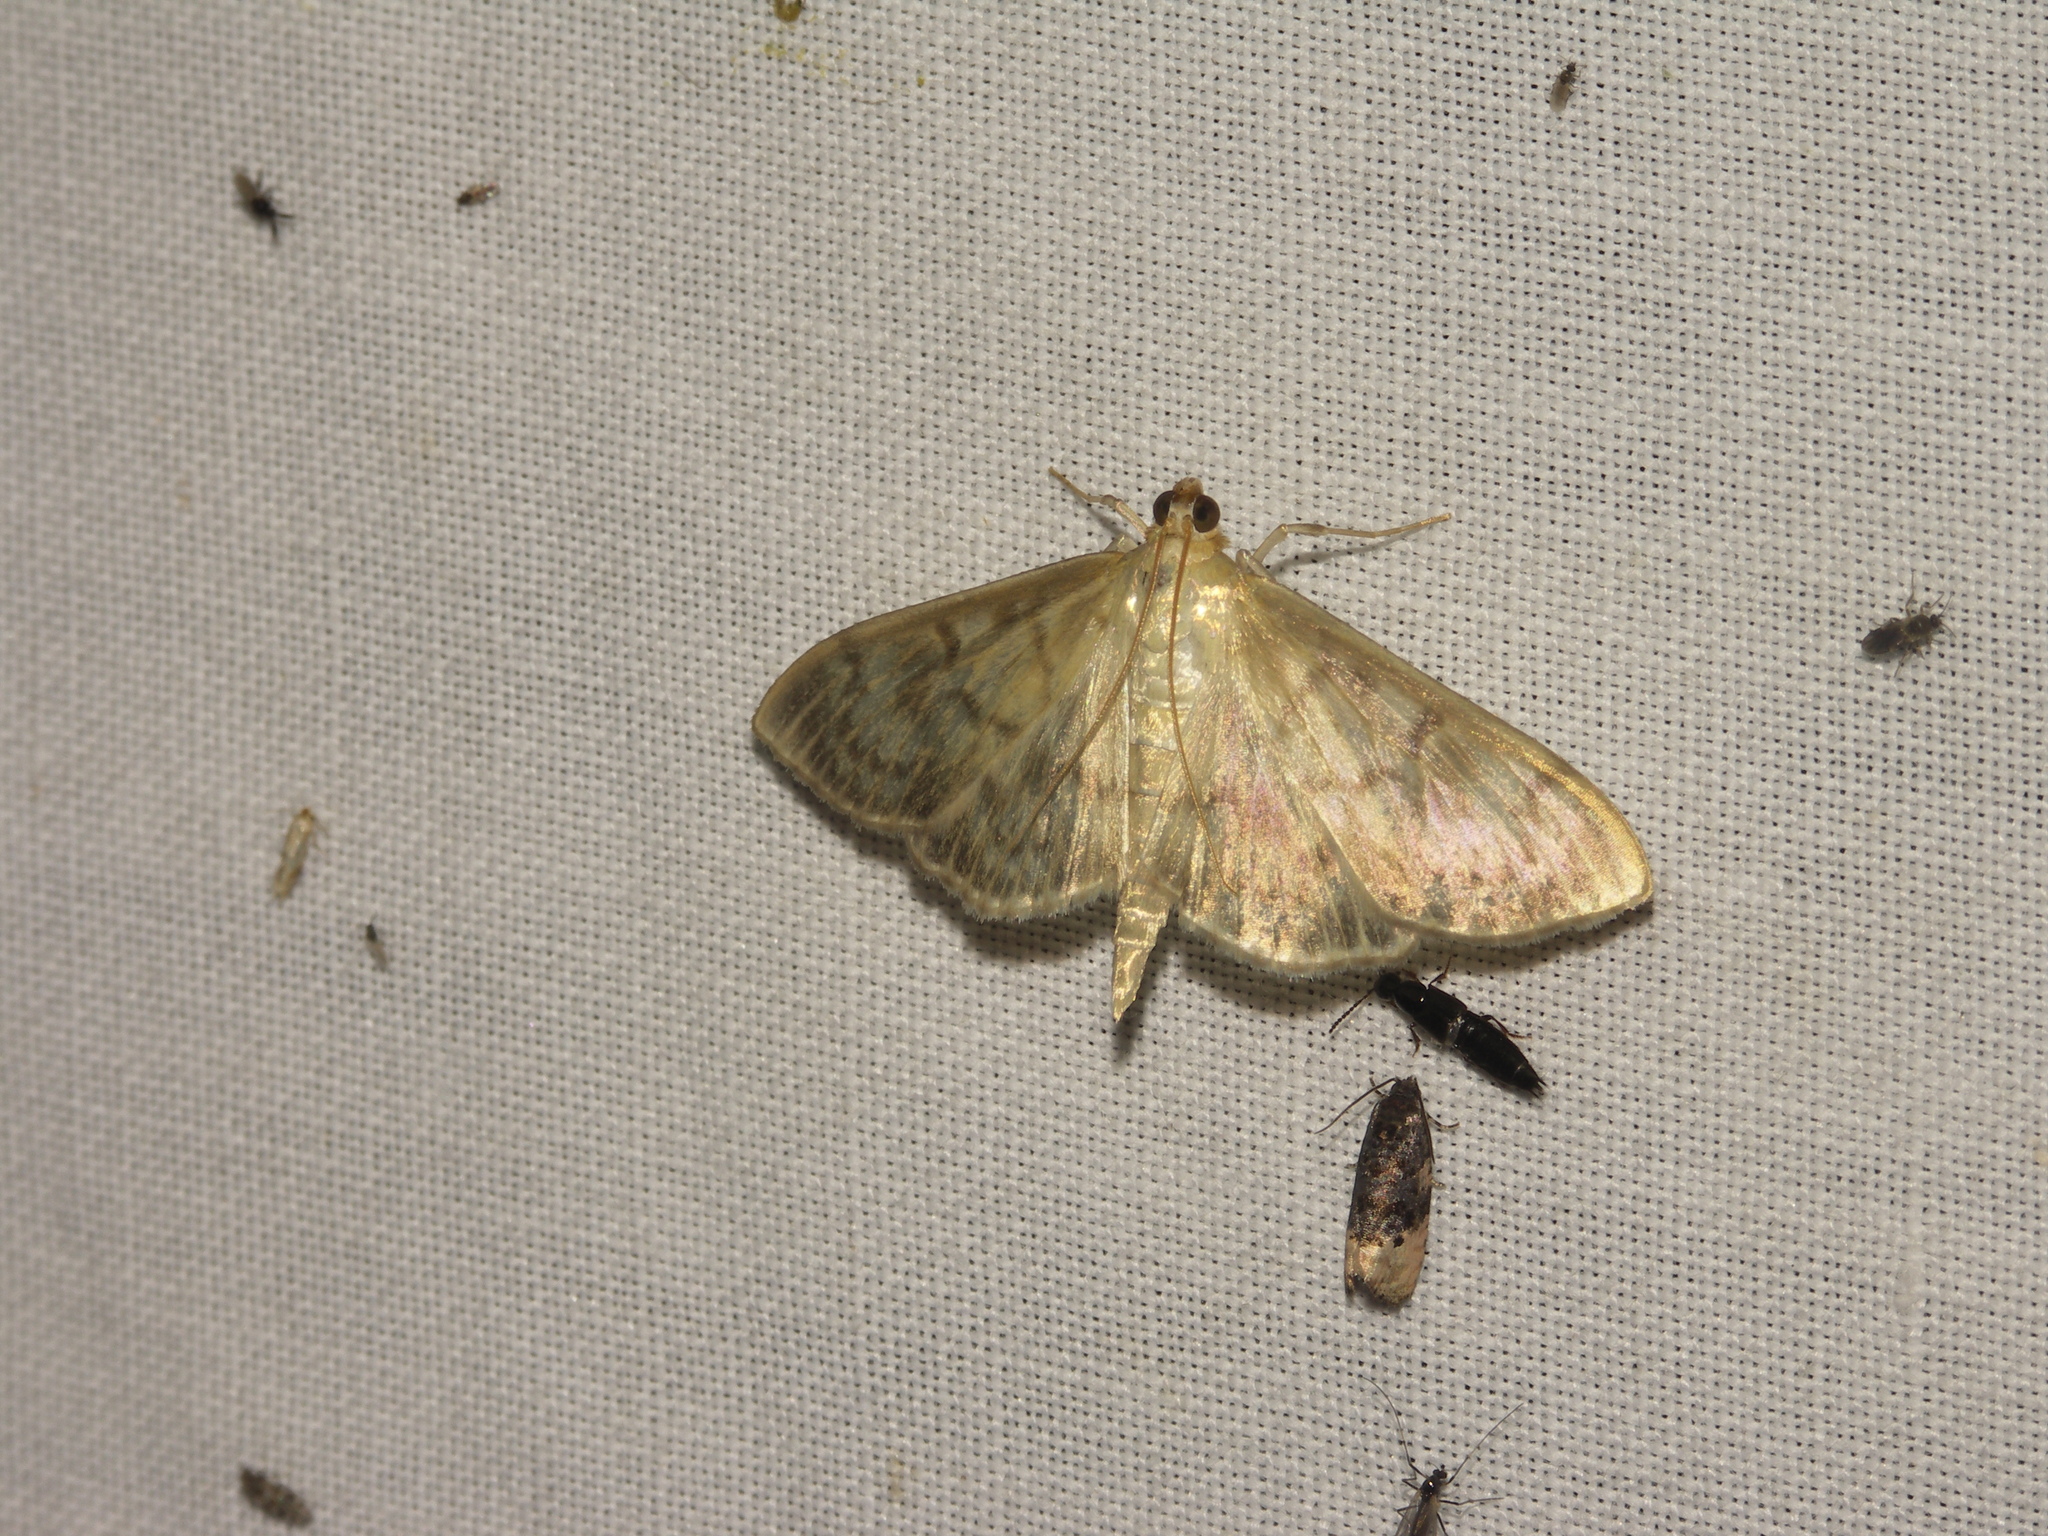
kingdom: Animalia
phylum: Arthropoda
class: Insecta
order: Lepidoptera
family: Crambidae
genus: Patania
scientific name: Patania ruralis
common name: Mother of pearl
